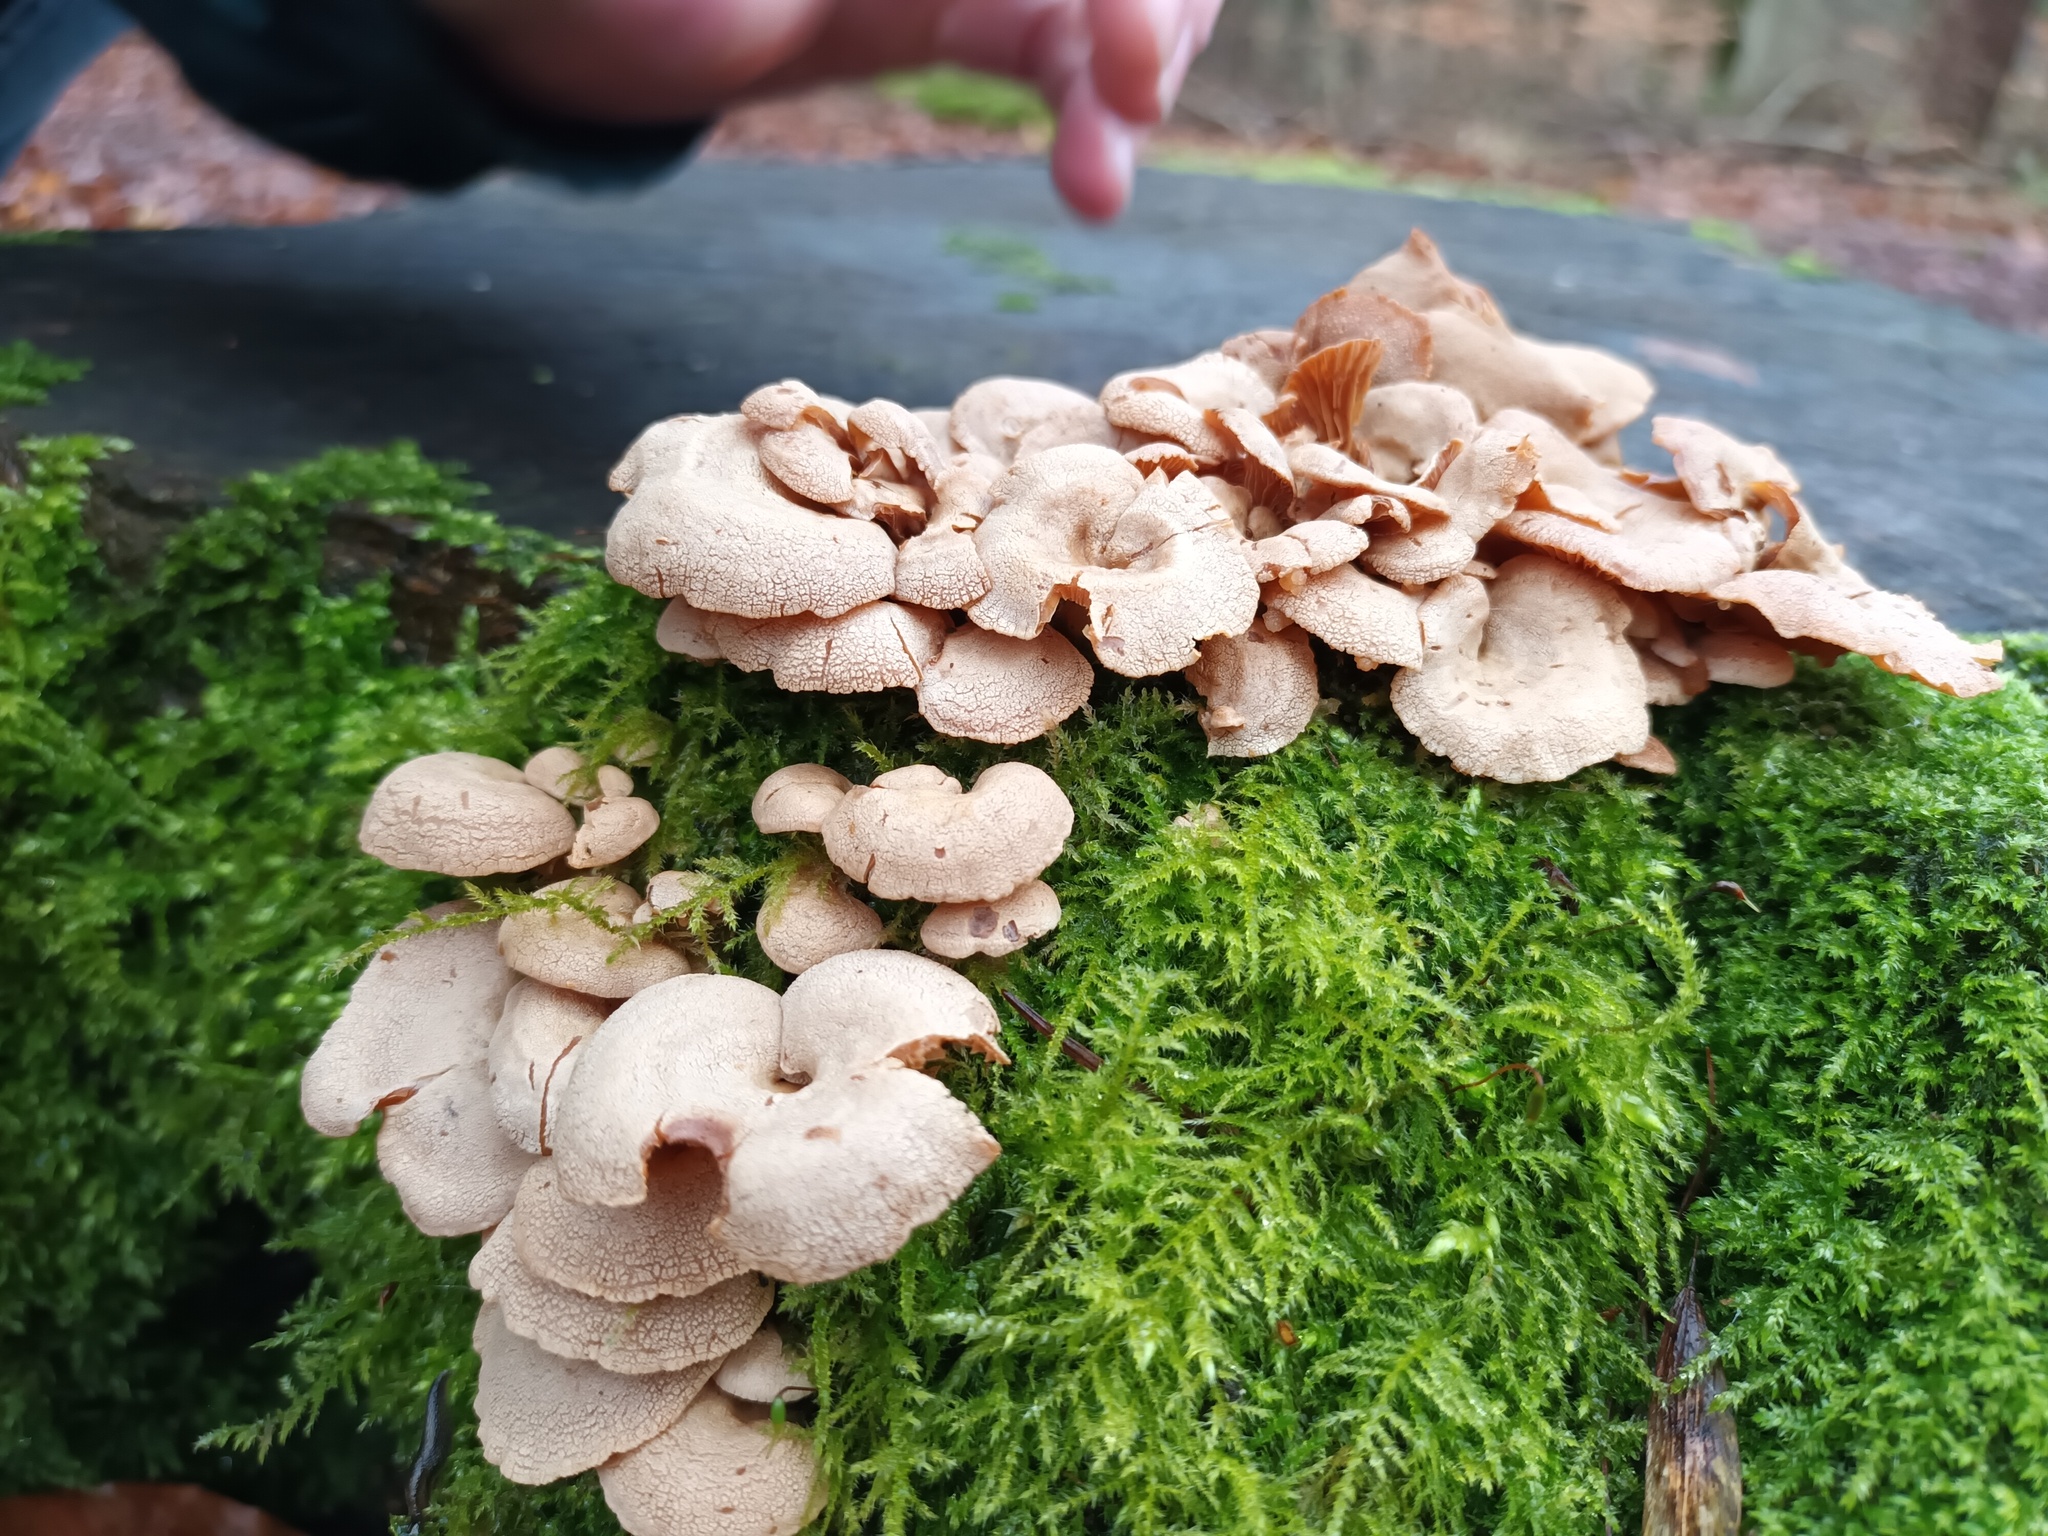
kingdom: Fungi
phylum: Basidiomycota
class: Agaricomycetes
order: Agaricales
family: Mycenaceae
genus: Panellus
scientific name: Panellus stipticus
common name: Bitter oysterling
